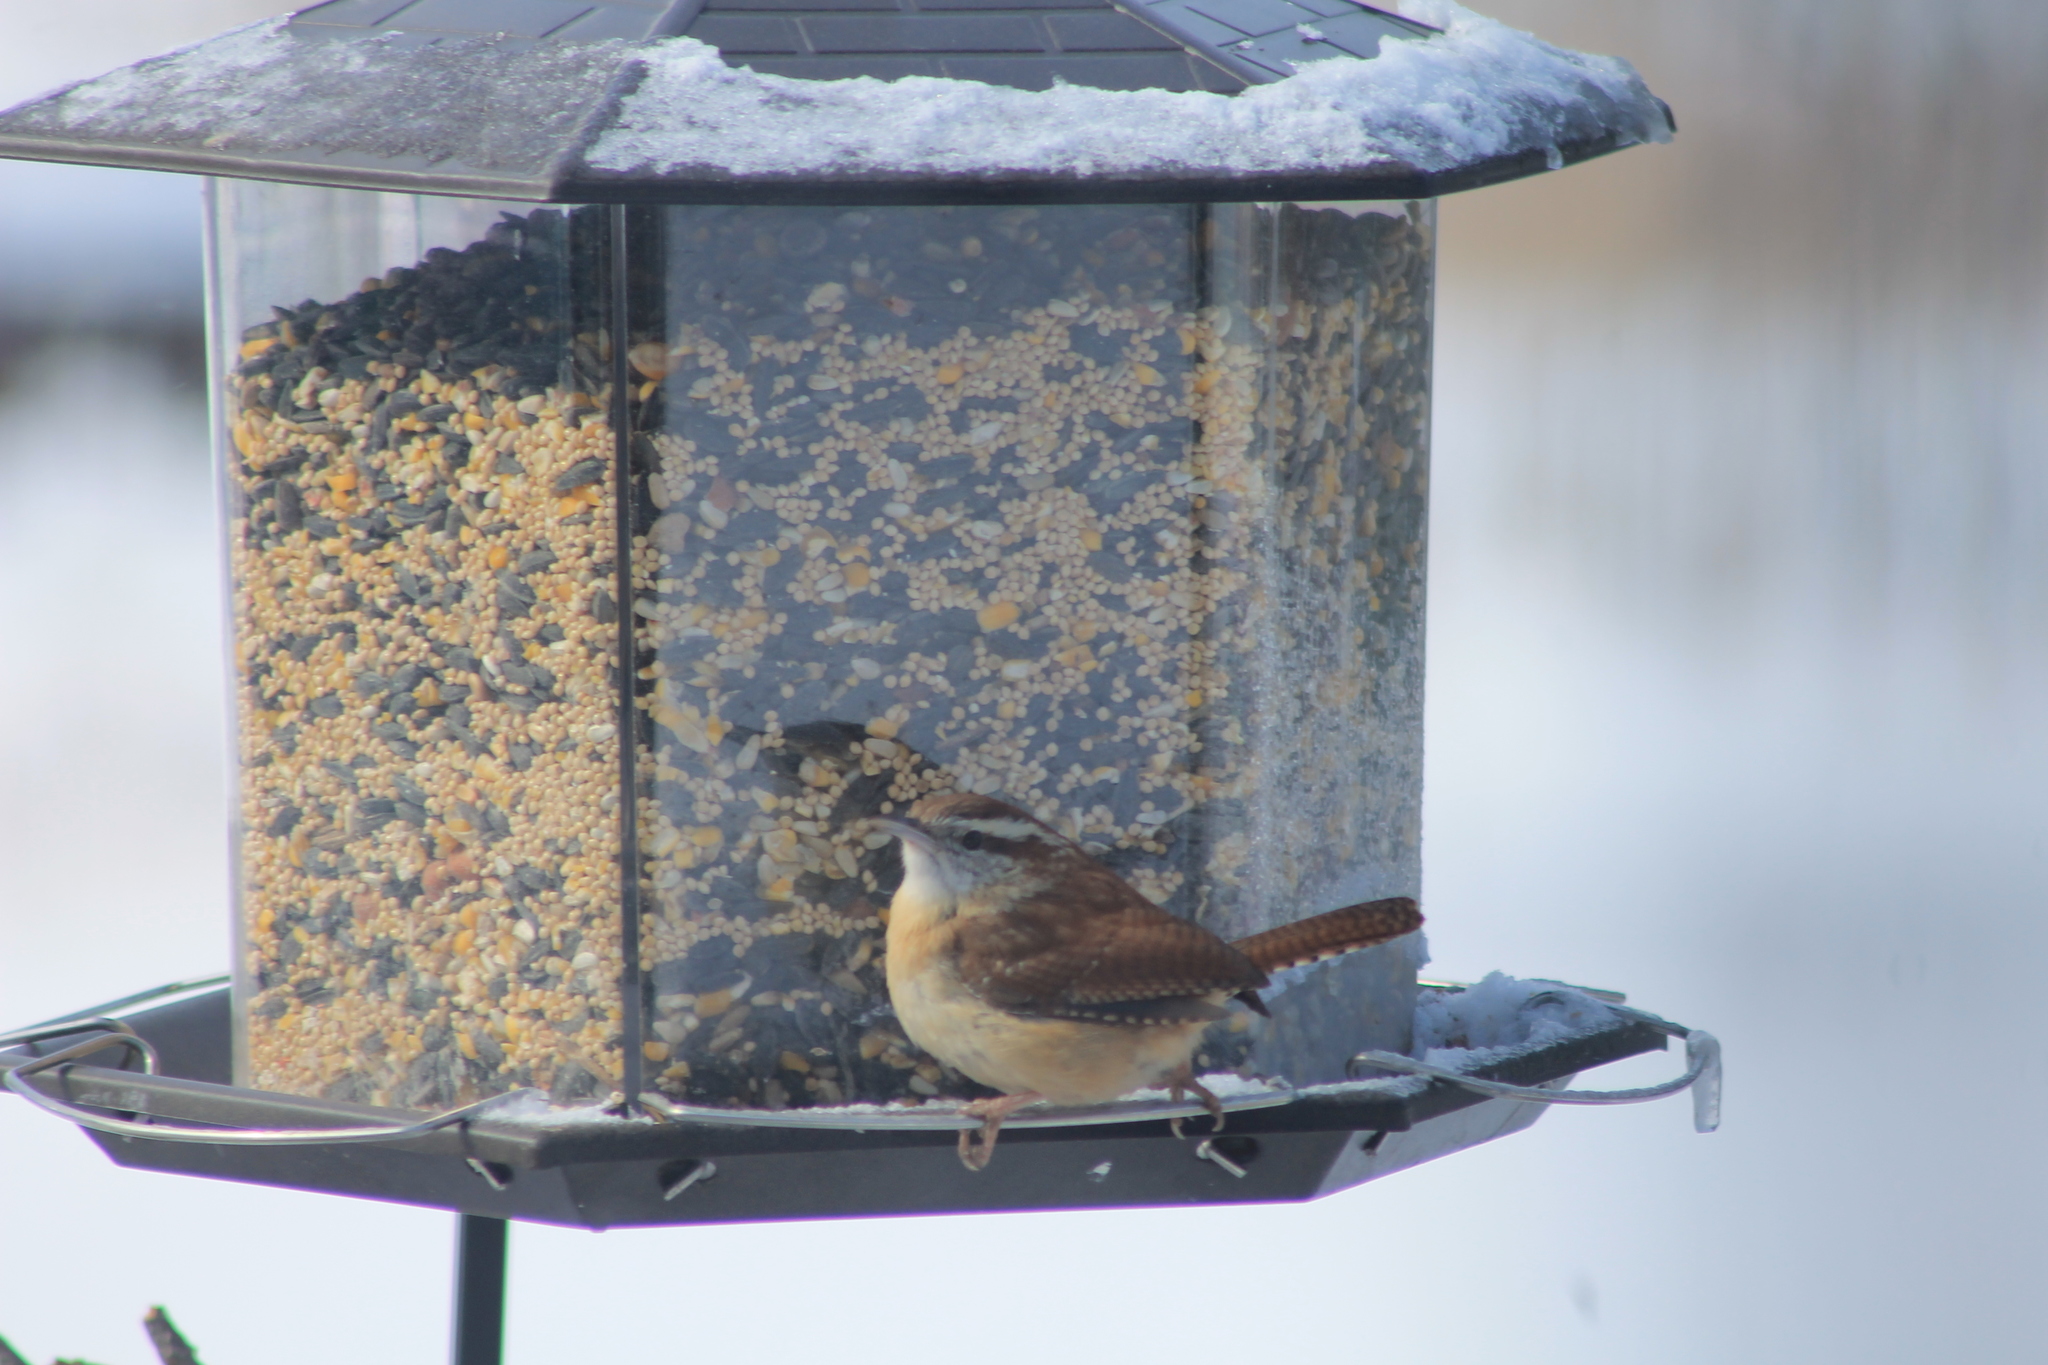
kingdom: Animalia
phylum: Chordata
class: Aves
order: Passeriformes
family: Troglodytidae
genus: Thryothorus
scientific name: Thryothorus ludovicianus
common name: Carolina wren
